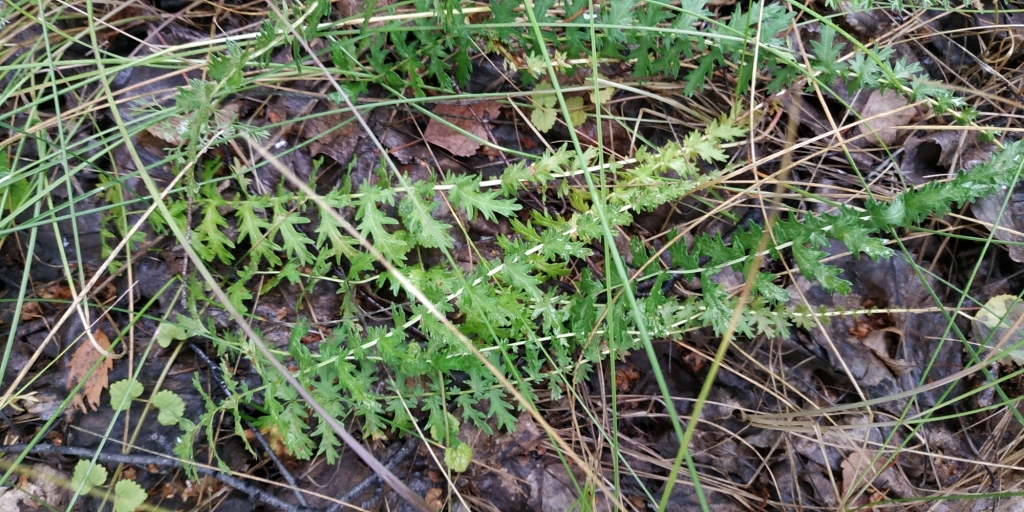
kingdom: Plantae
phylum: Tracheophyta
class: Magnoliopsida
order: Rosales
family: Rosaceae
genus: Filipendula
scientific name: Filipendula vulgaris
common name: Dropwort
